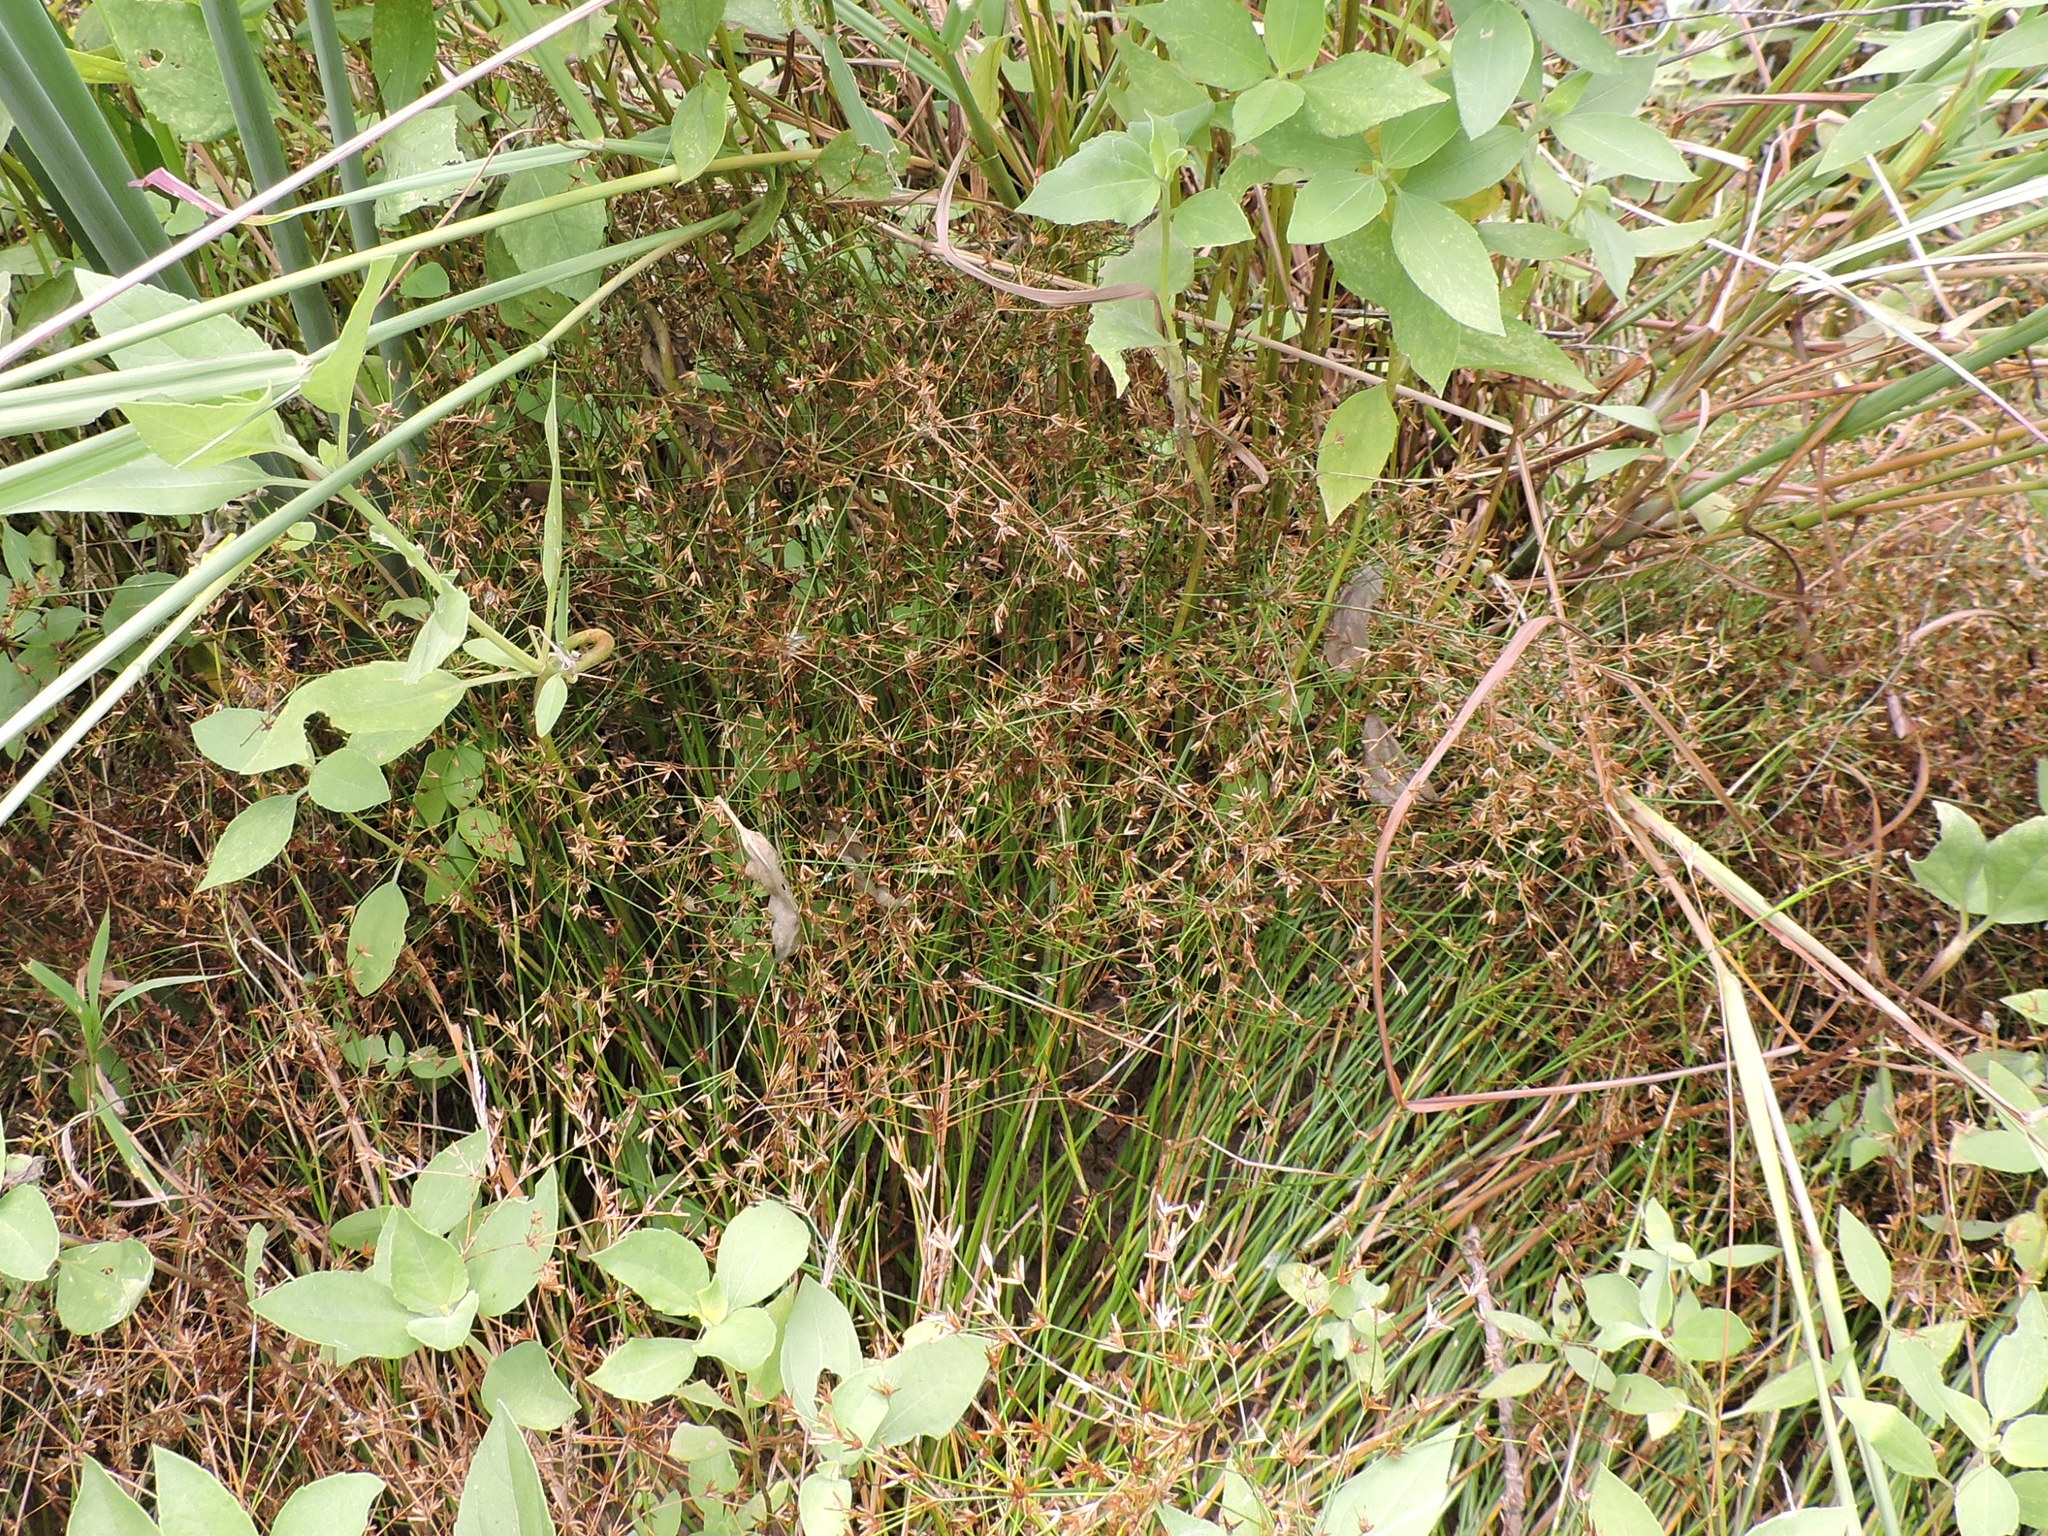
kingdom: Plantae
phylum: Tracheophyta
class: Liliopsida
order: Poales
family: Juncaceae
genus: Juncus
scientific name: Juncus diffusissimus
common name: Slimpod rush
